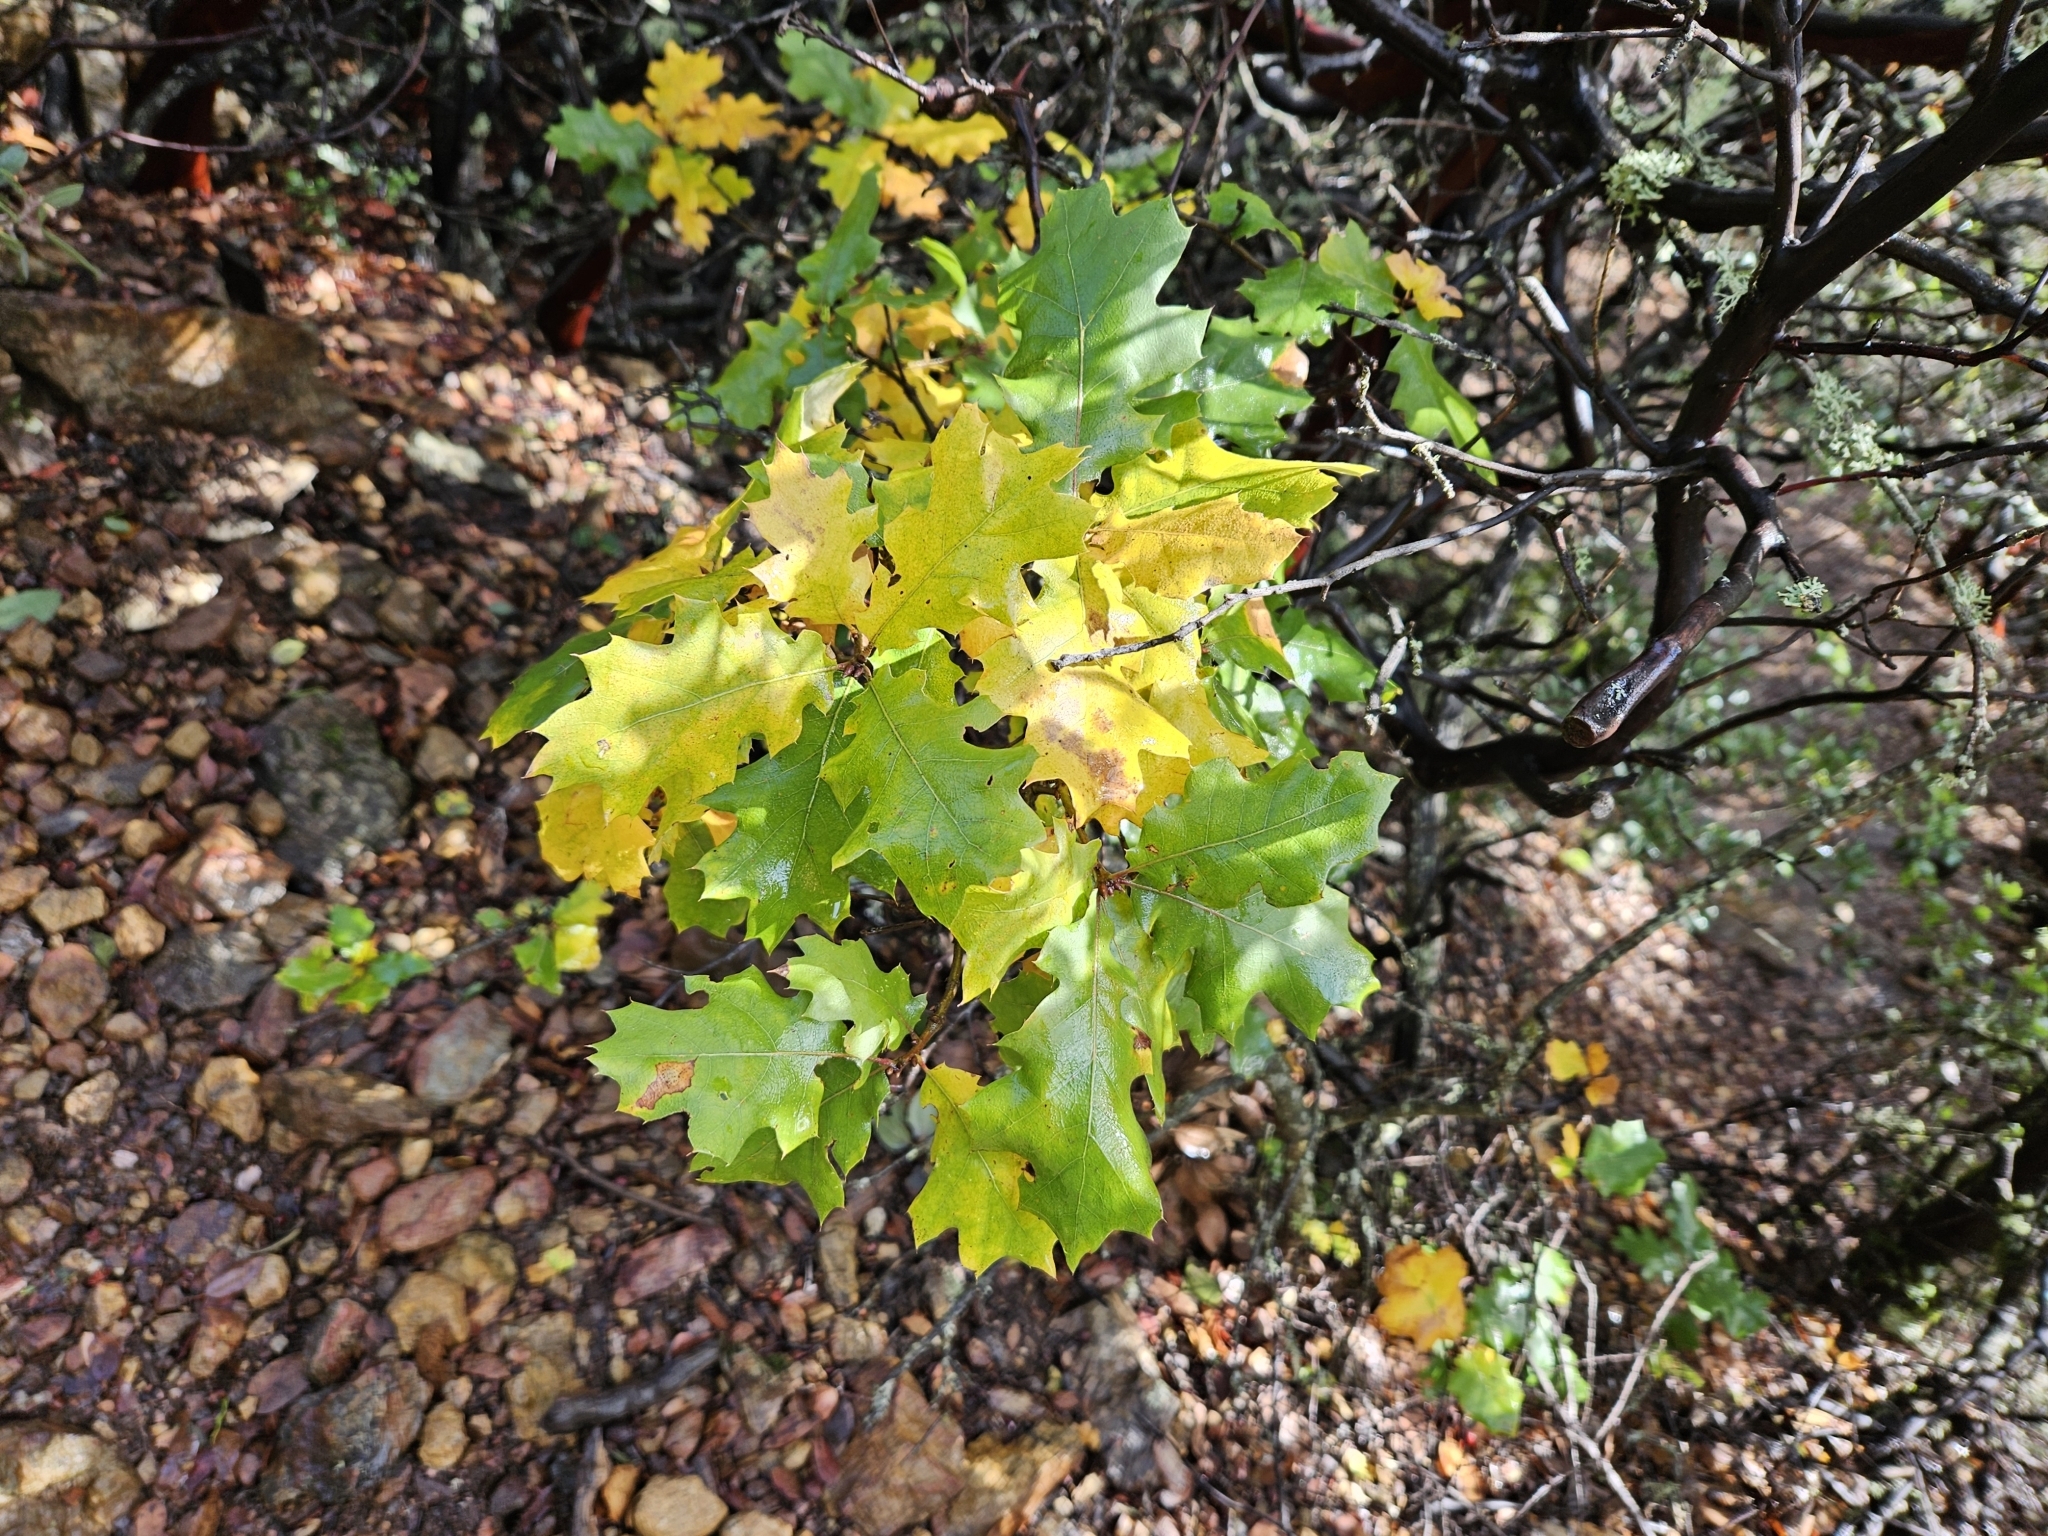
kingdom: Plantae
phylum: Tracheophyta
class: Magnoliopsida
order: Fagales
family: Fagaceae
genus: Quercus
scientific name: Quercus kelloggii
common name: California black oak
